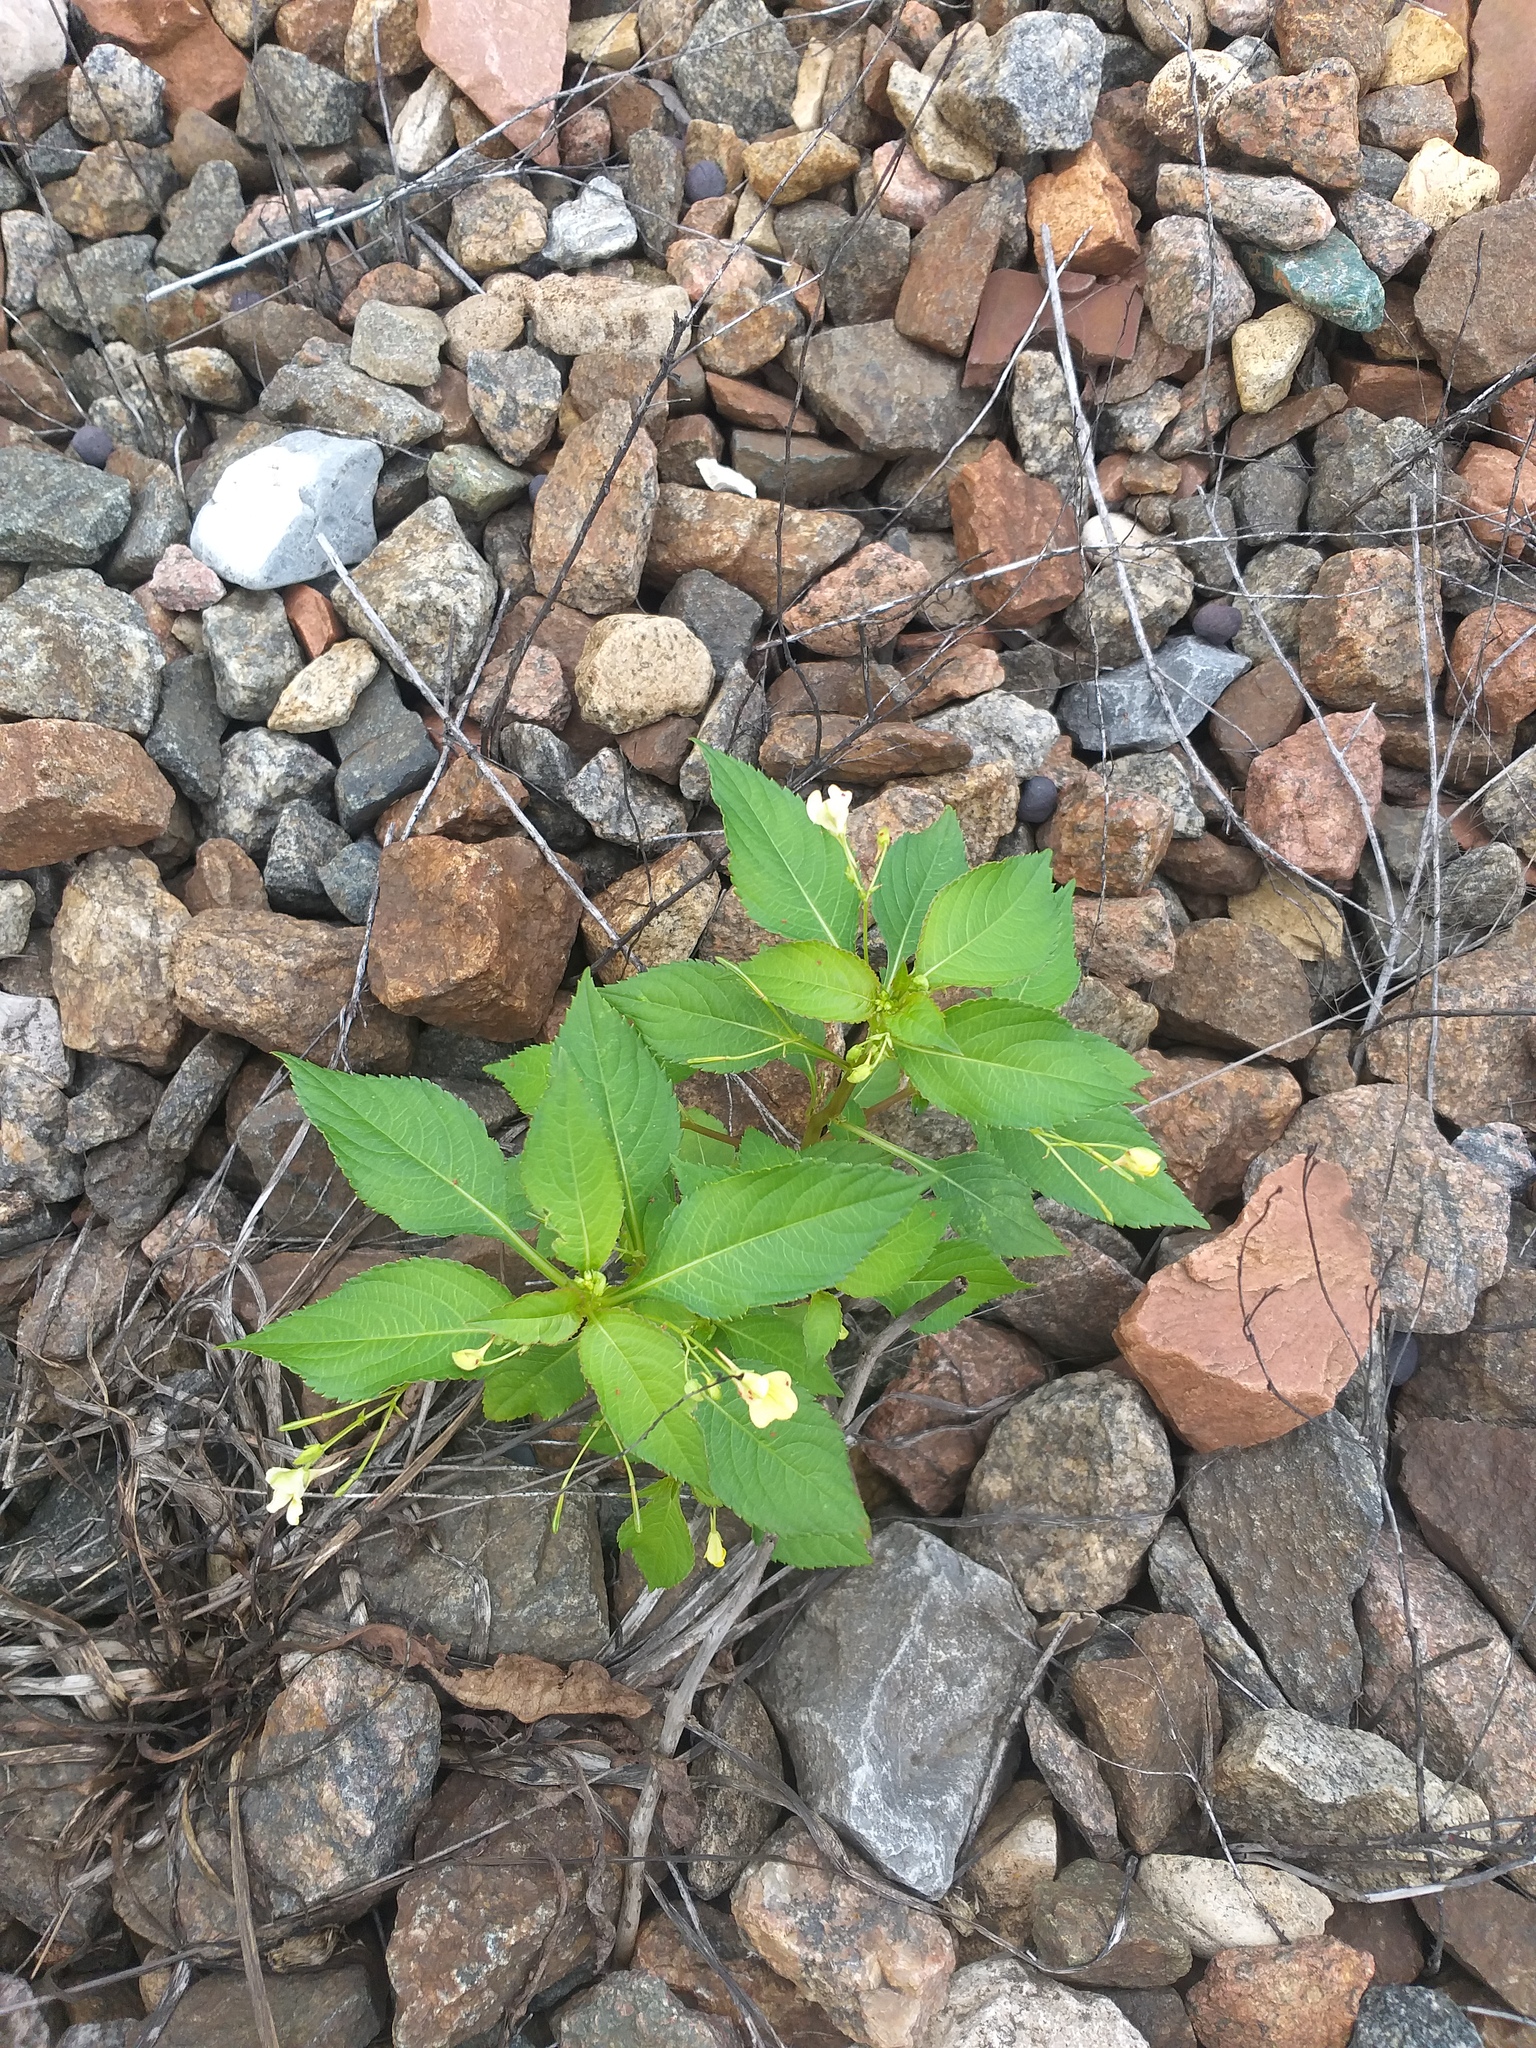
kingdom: Plantae
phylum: Tracheophyta
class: Magnoliopsida
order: Ericales
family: Balsaminaceae
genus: Impatiens
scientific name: Impatiens parviflora
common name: Small balsam
